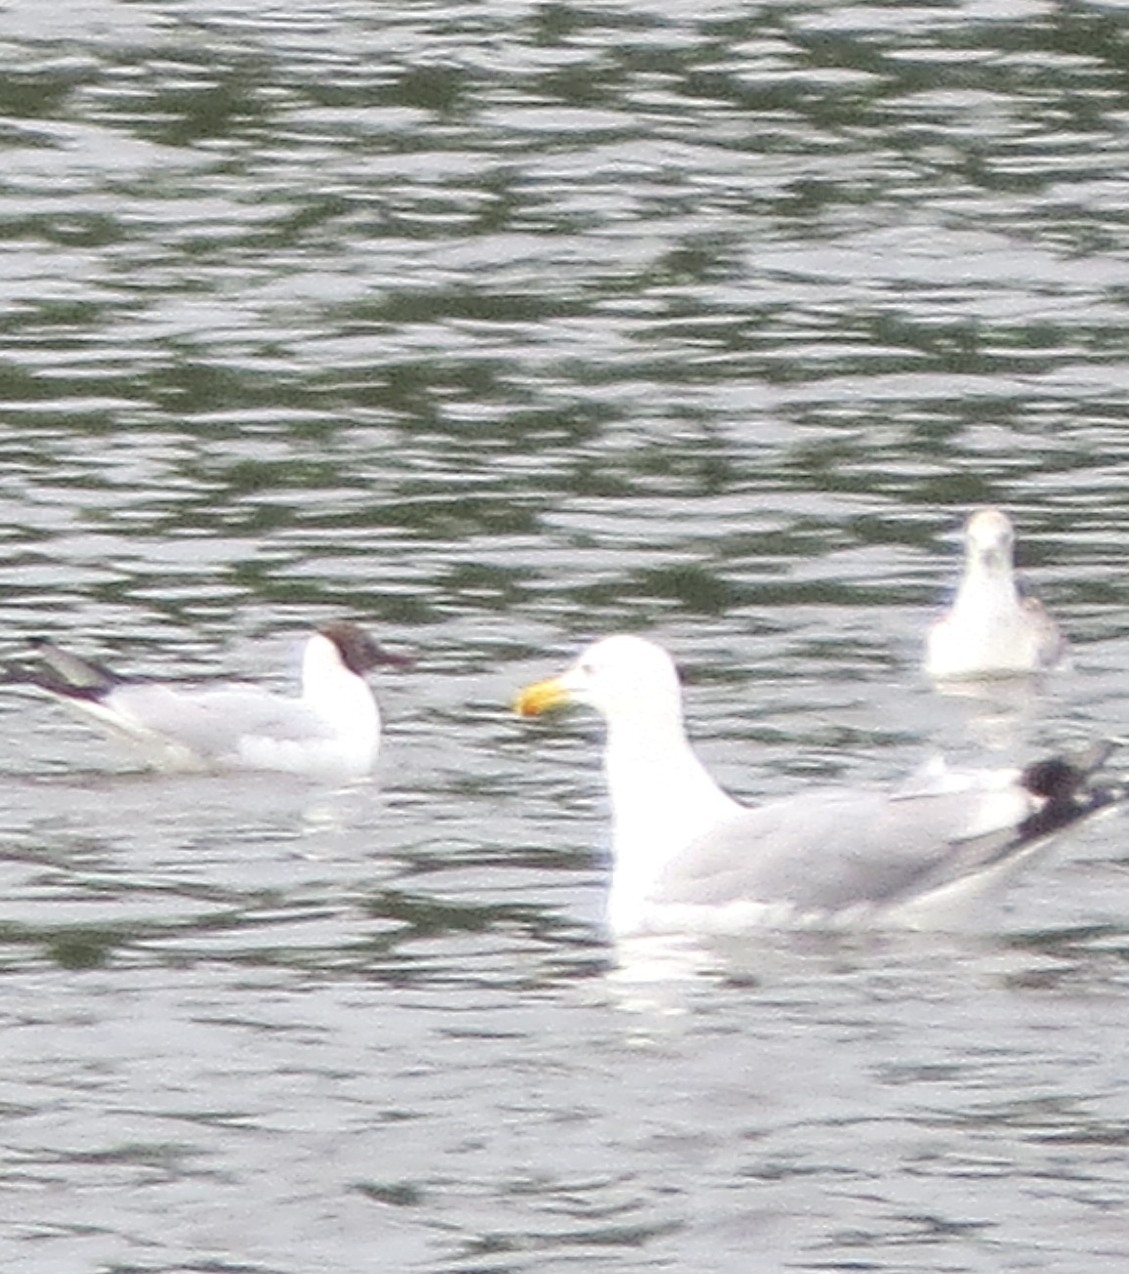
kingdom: Animalia
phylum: Chordata
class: Aves
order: Charadriiformes
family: Laridae
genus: Larus
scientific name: Larus argentatus
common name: Herring gull
